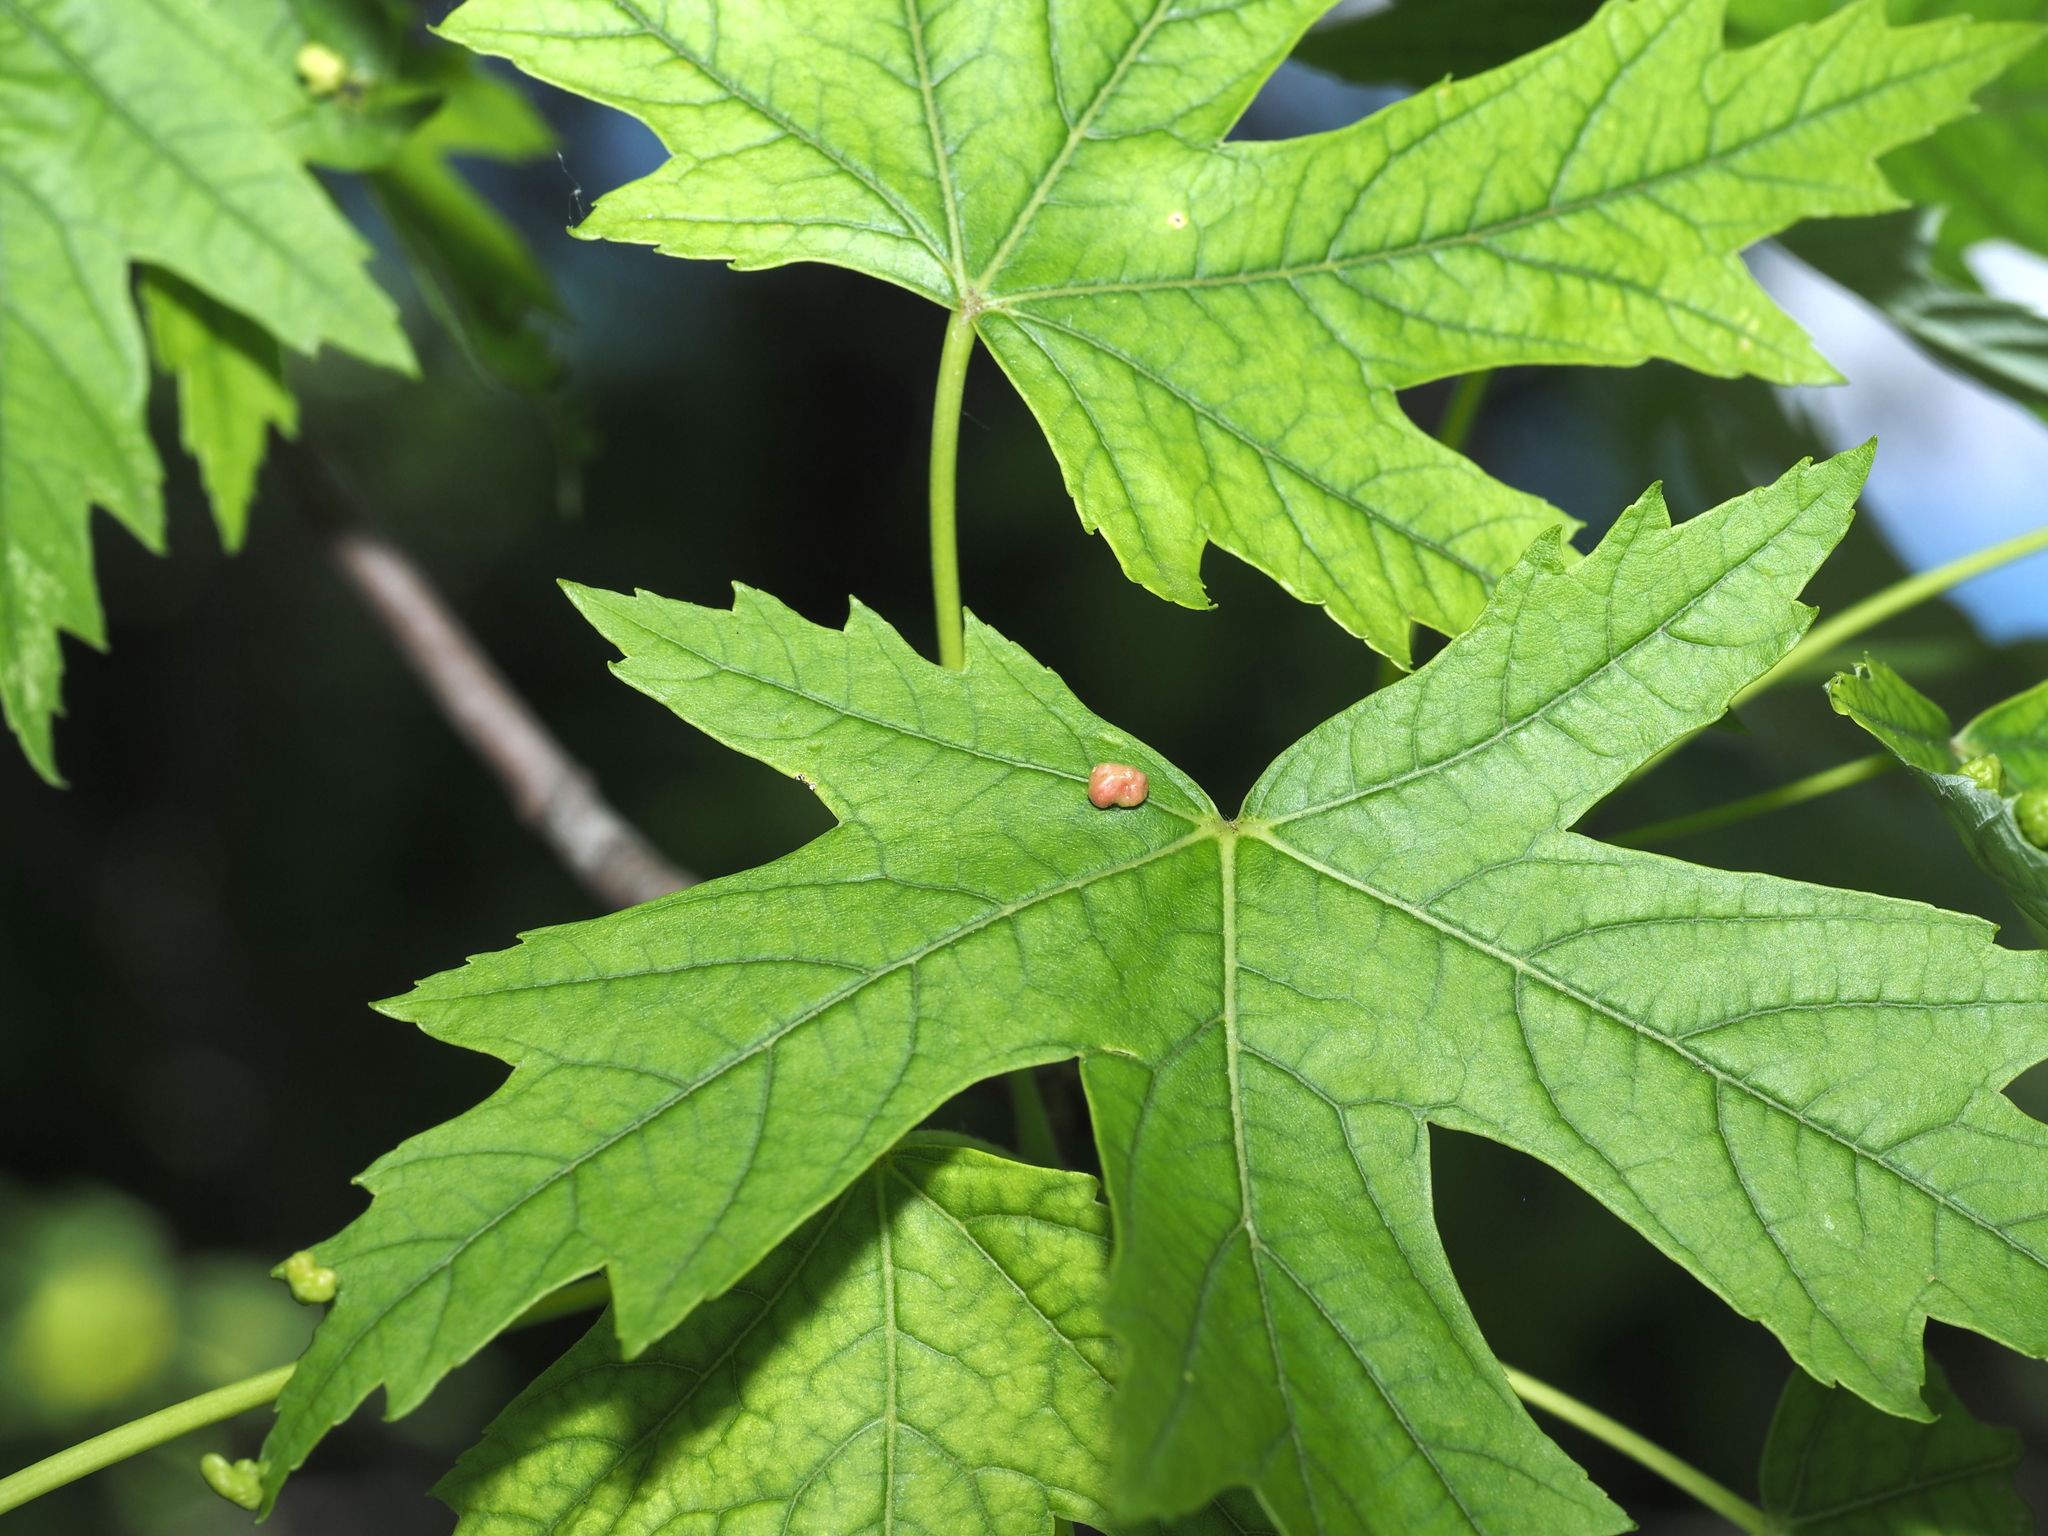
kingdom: Animalia
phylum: Arthropoda
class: Arachnida
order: Trombidiformes
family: Eriophyidae
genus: Vasates
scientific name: Vasates quadripedes
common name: Maple bladder gall mite
